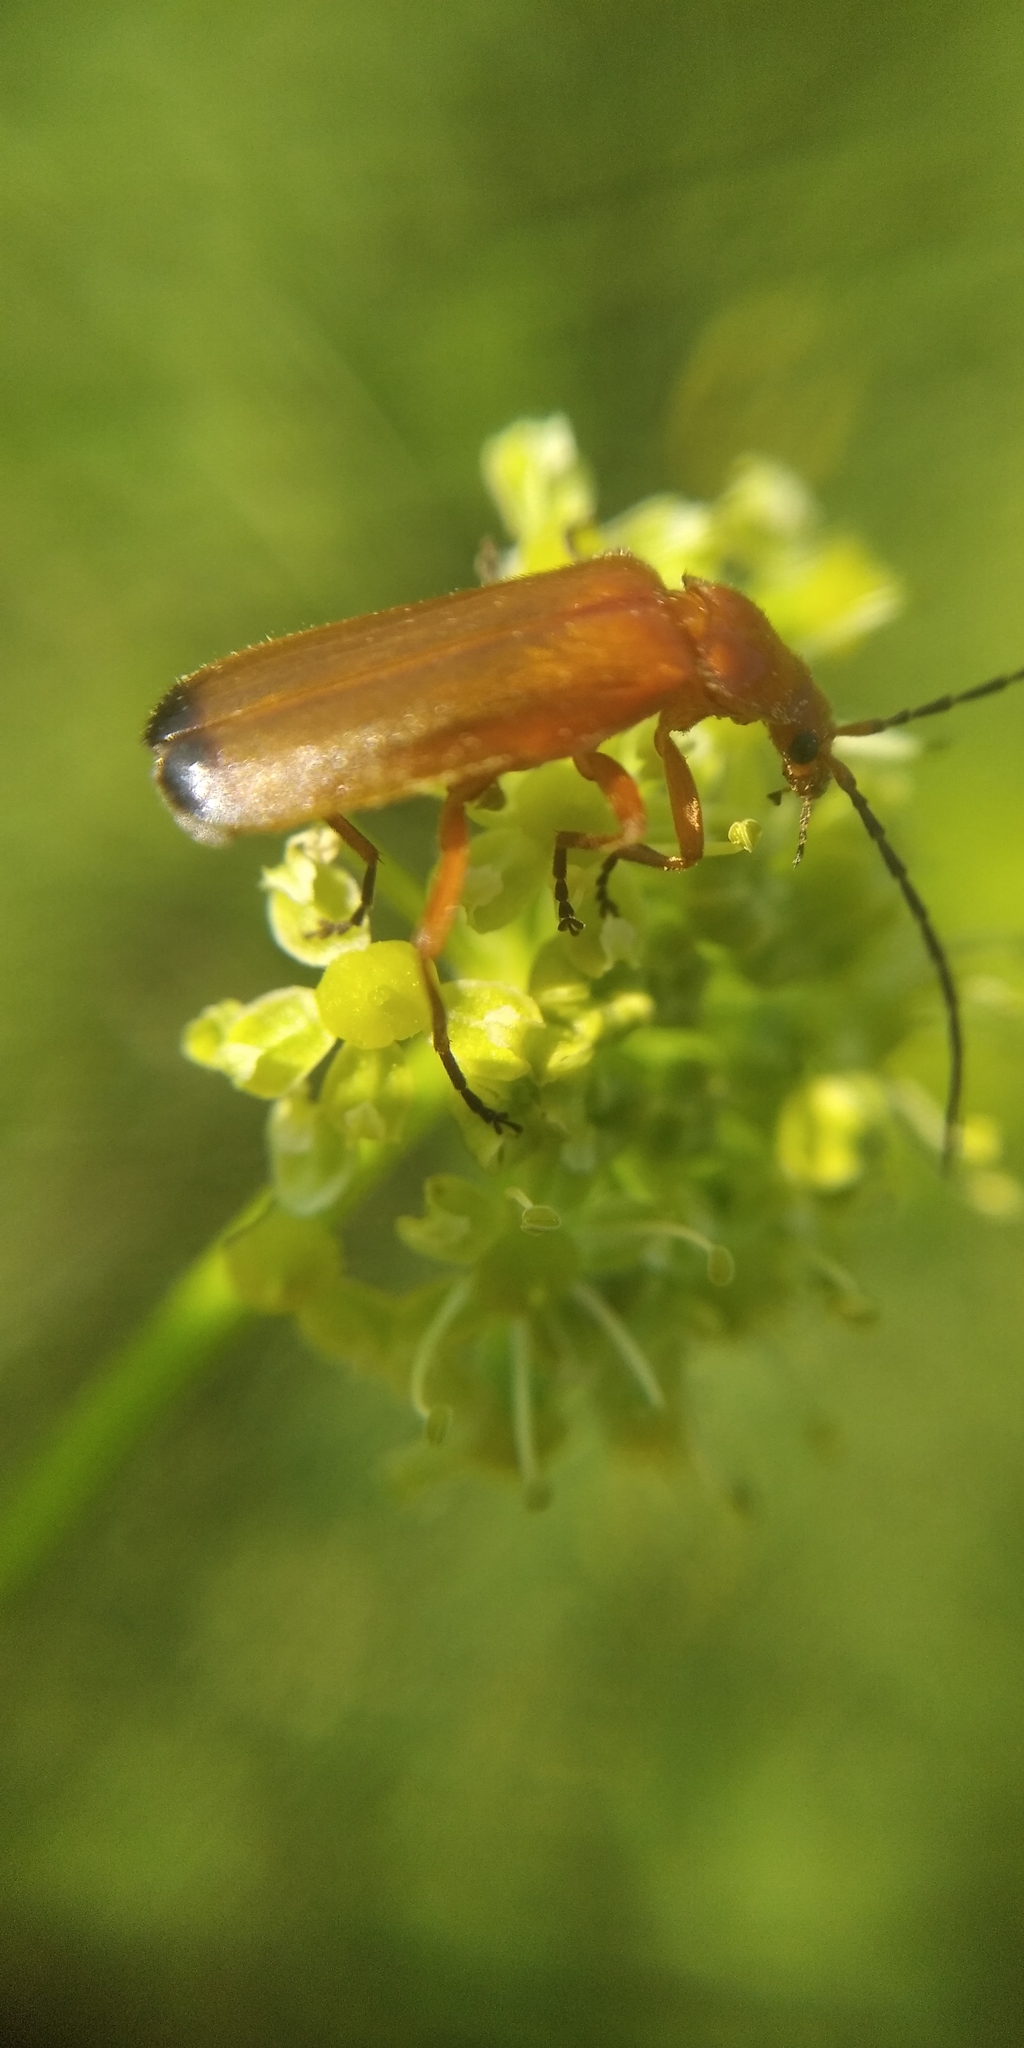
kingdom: Animalia
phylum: Arthropoda
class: Insecta
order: Coleoptera
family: Cantharidae
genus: Rhagonycha
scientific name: Rhagonycha fulva
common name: Common red soldier beetle
